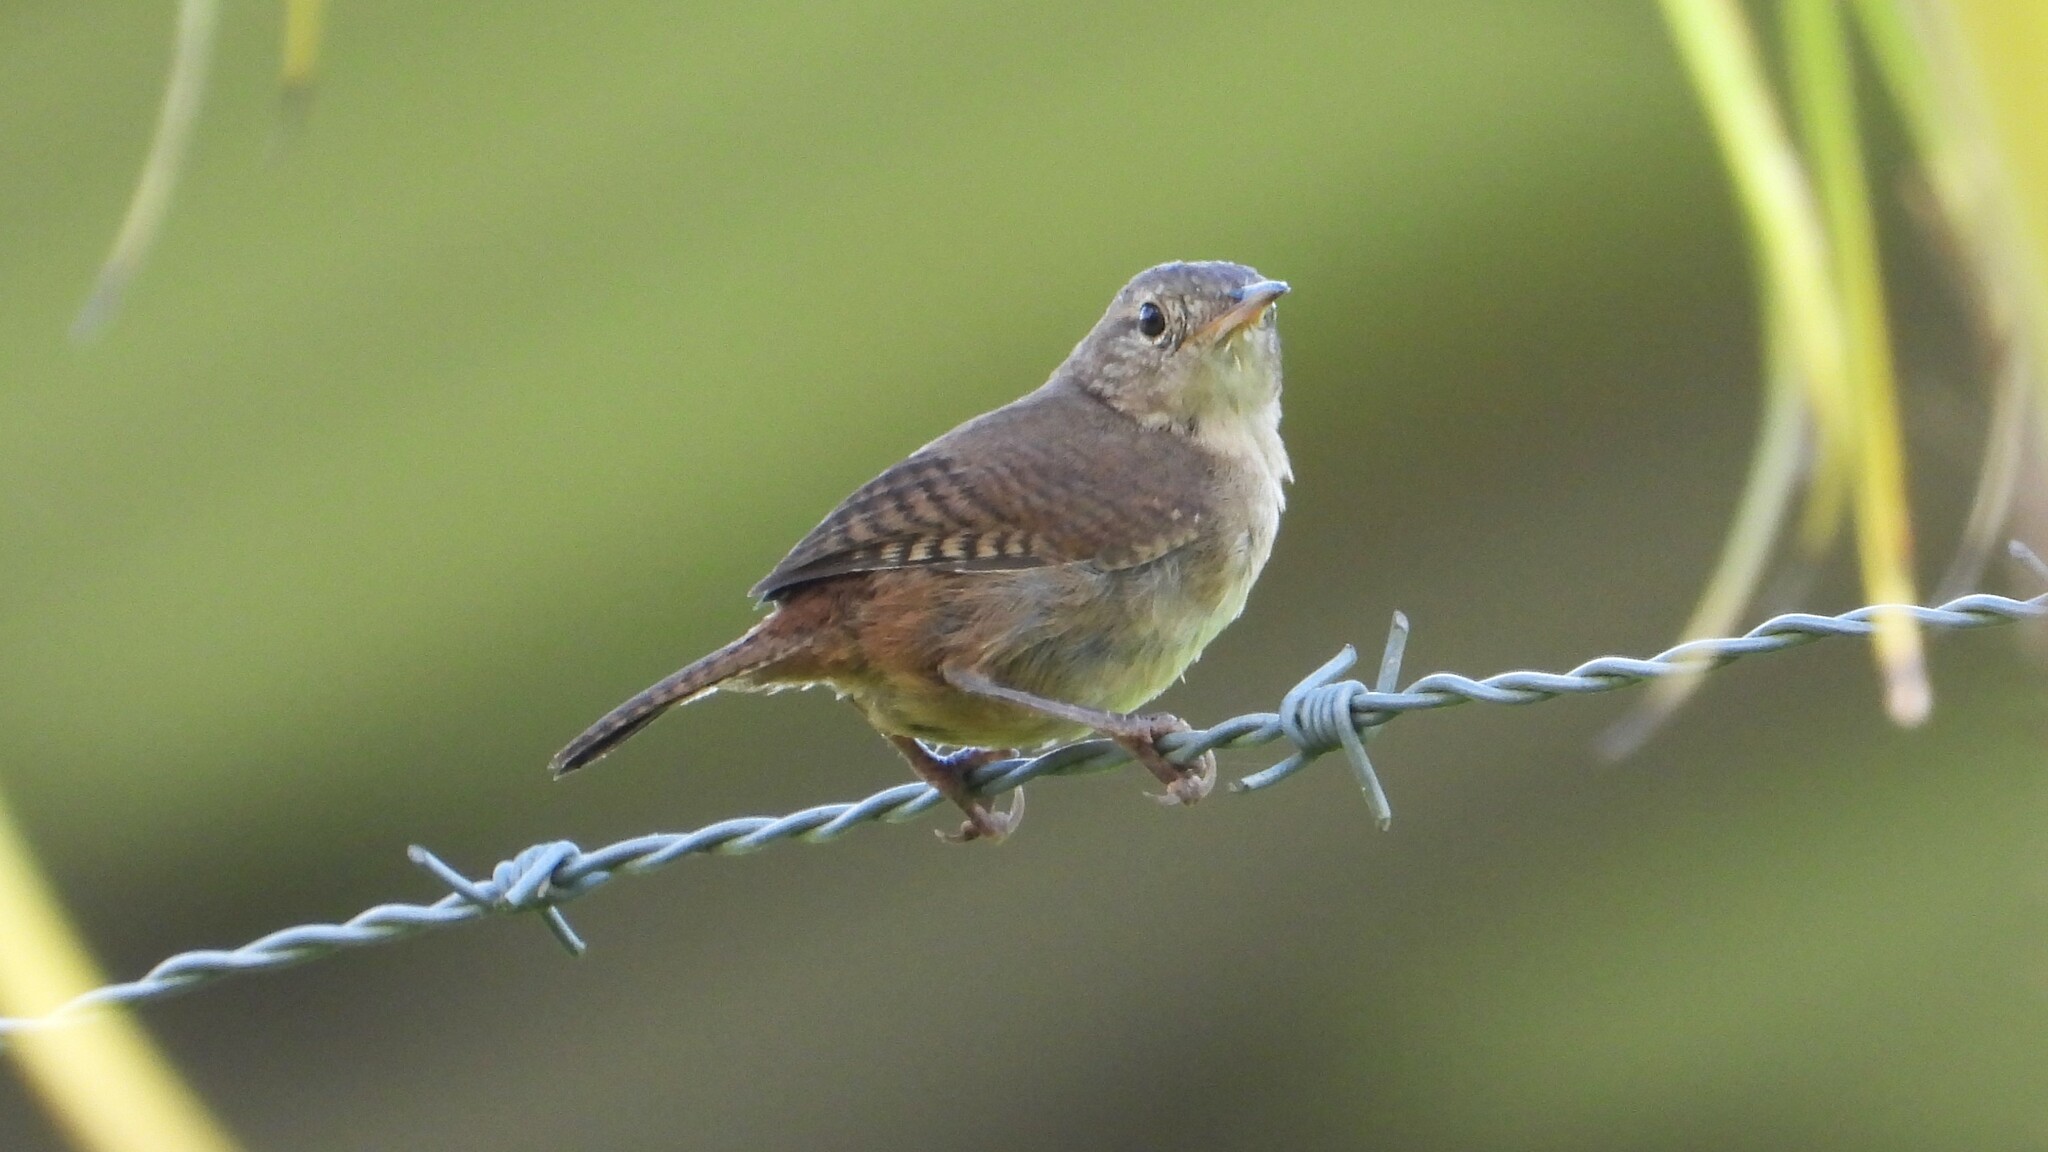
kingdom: Animalia
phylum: Chordata
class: Aves
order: Passeriformes
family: Troglodytidae
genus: Troglodytes
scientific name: Troglodytes aedon
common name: House wren
